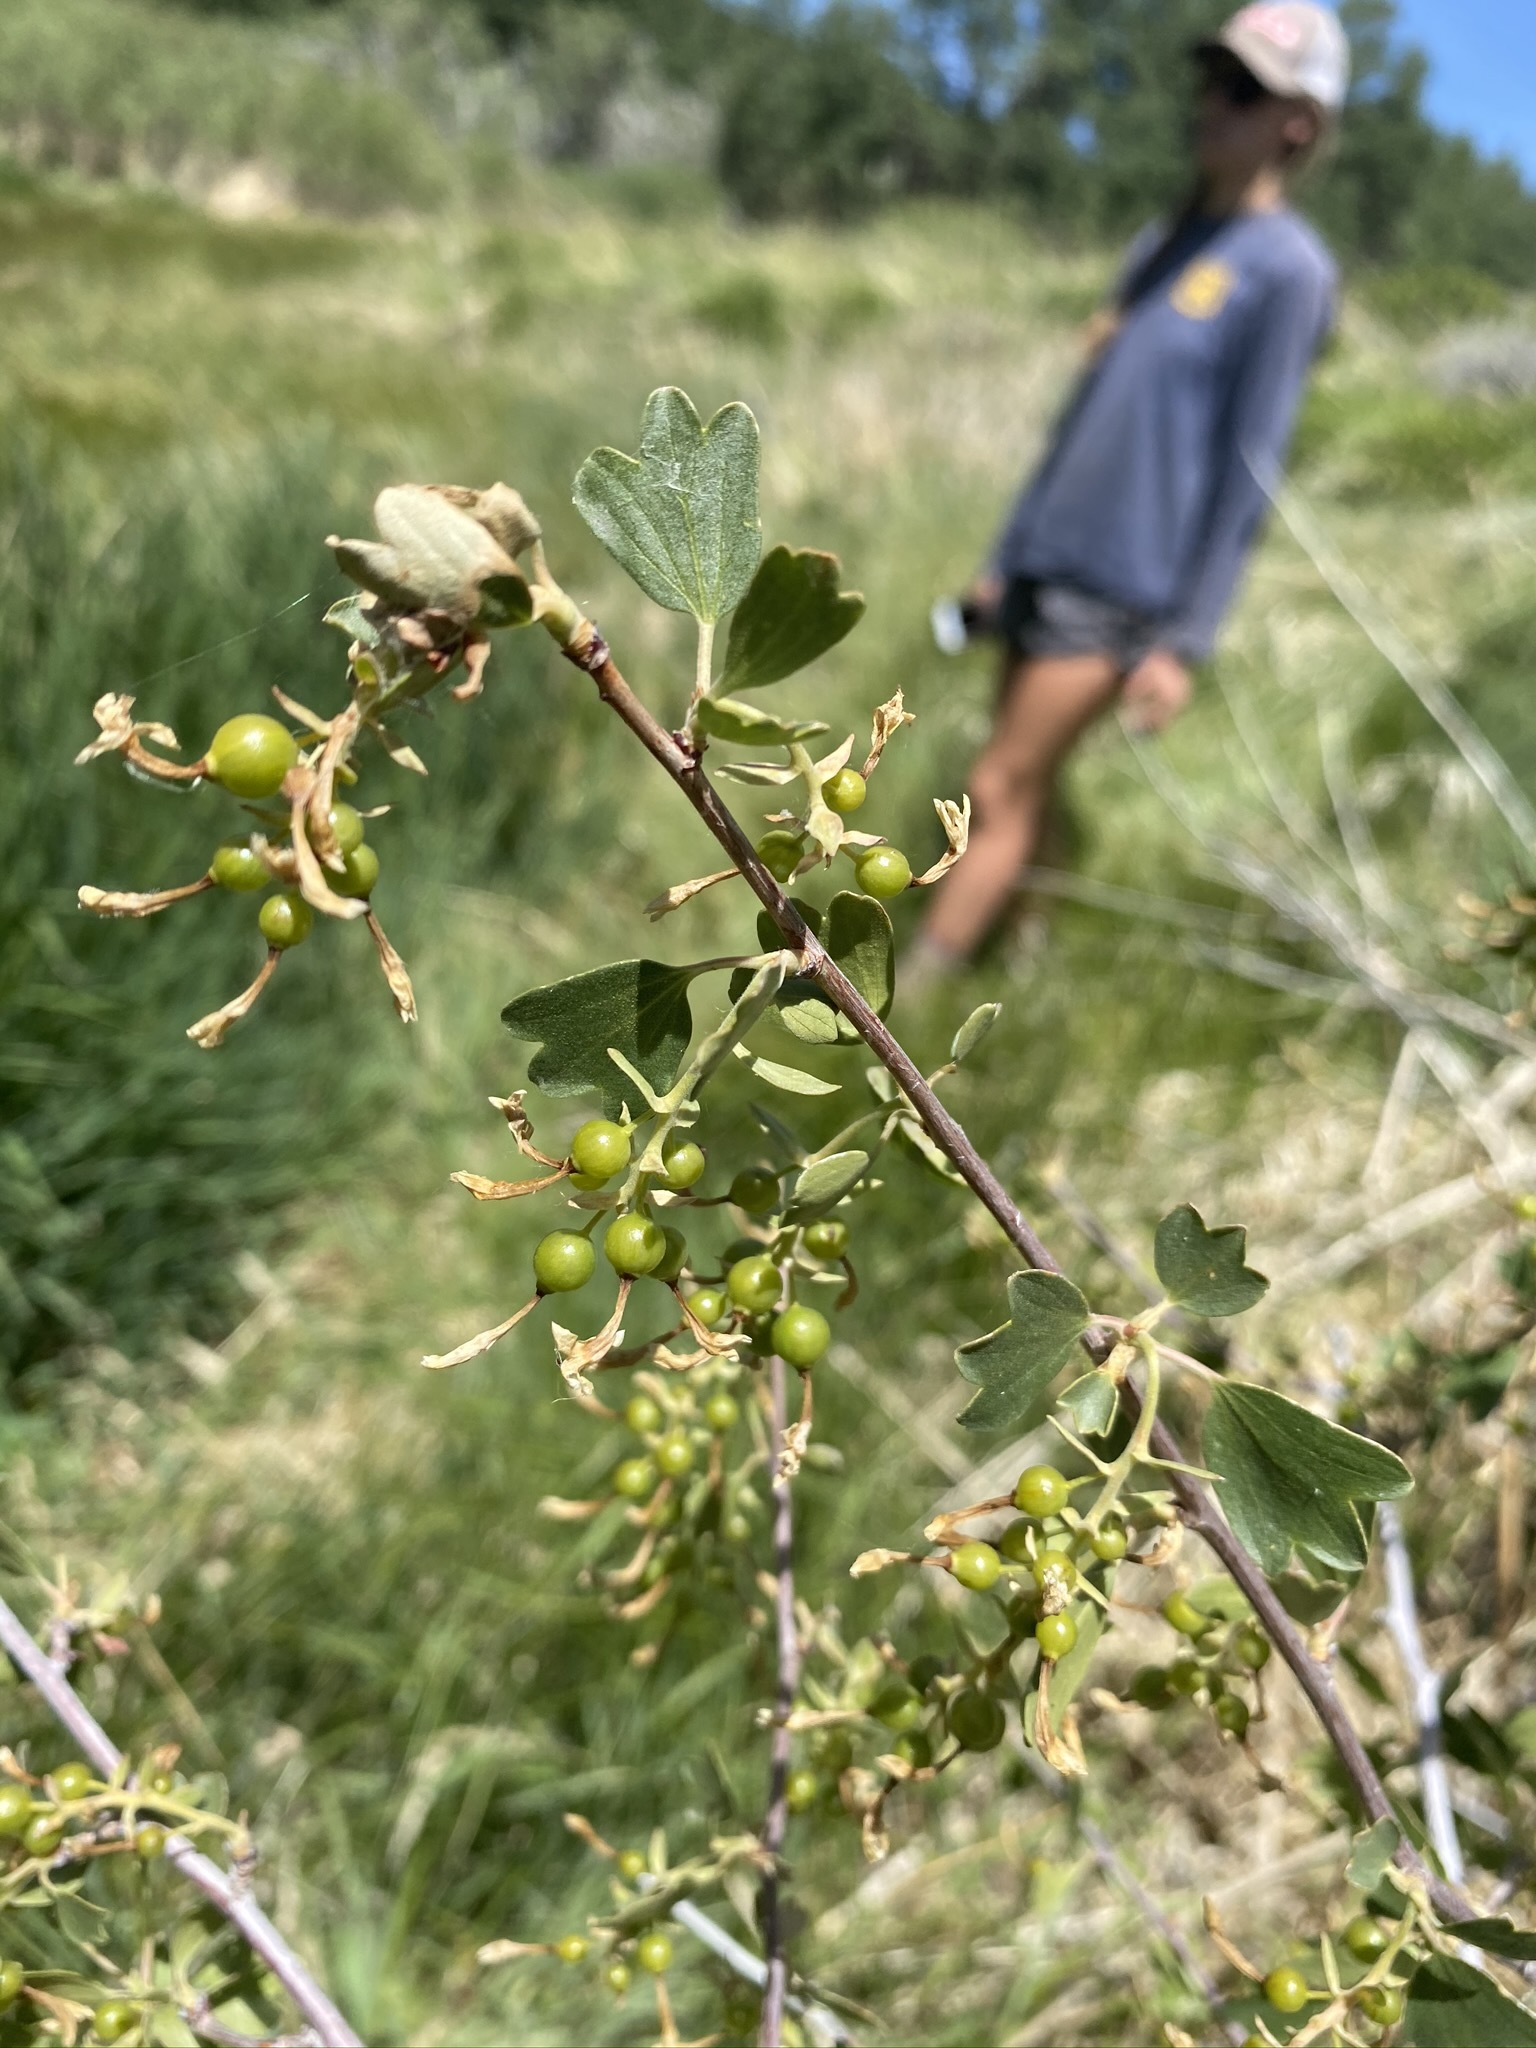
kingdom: Plantae
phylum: Tracheophyta
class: Magnoliopsida
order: Saxifragales
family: Grossulariaceae
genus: Ribes
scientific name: Ribes aureum
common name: Golden currant
